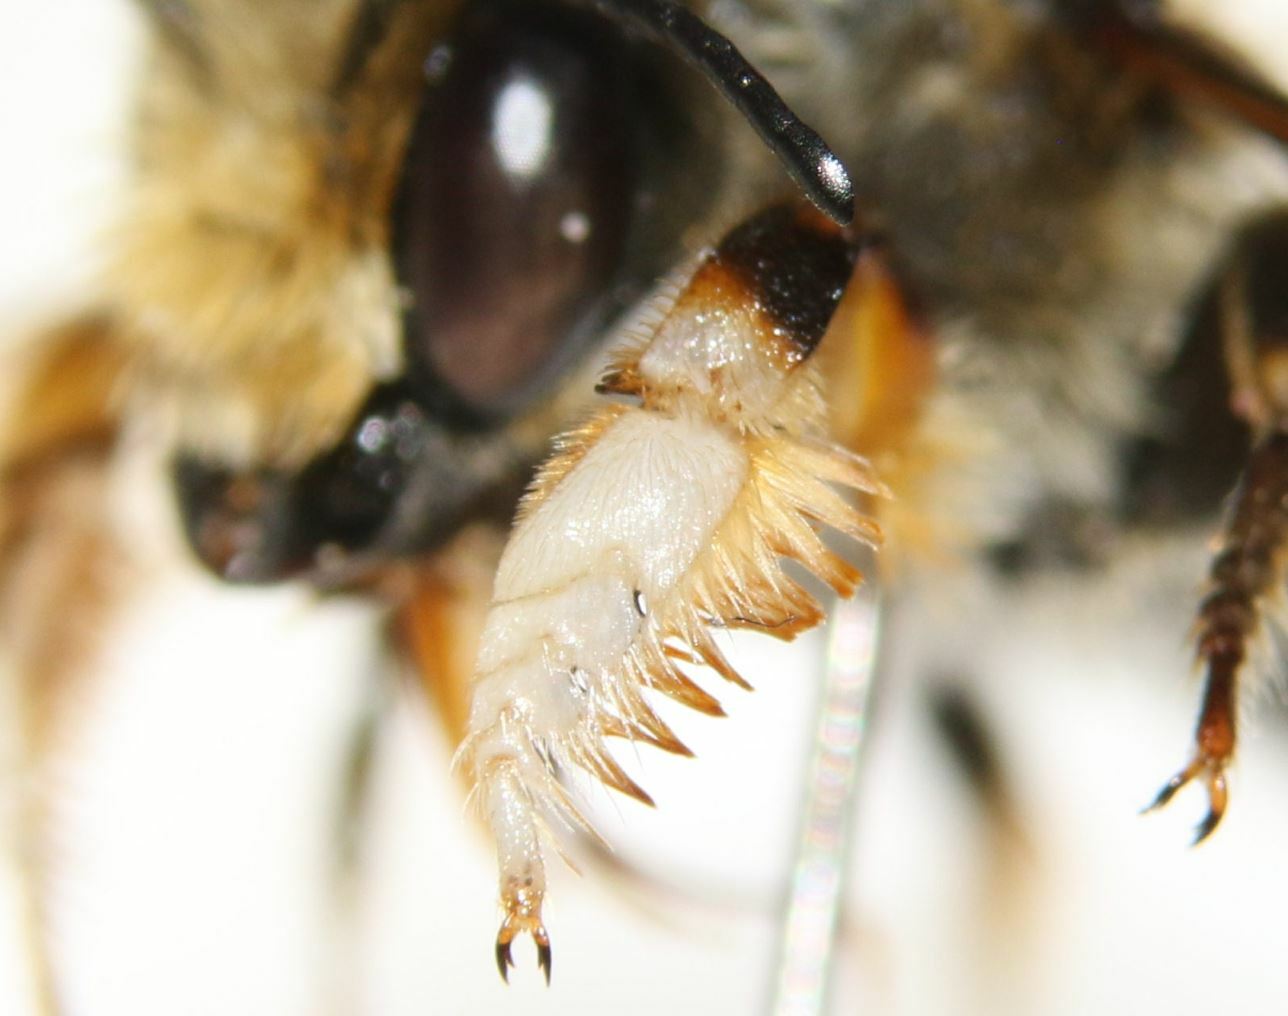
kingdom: Animalia
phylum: Arthropoda
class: Insecta
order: Hymenoptera
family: Megachilidae
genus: Megachile
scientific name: Megachile willughbiella
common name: Willughby's leafcutter bee
